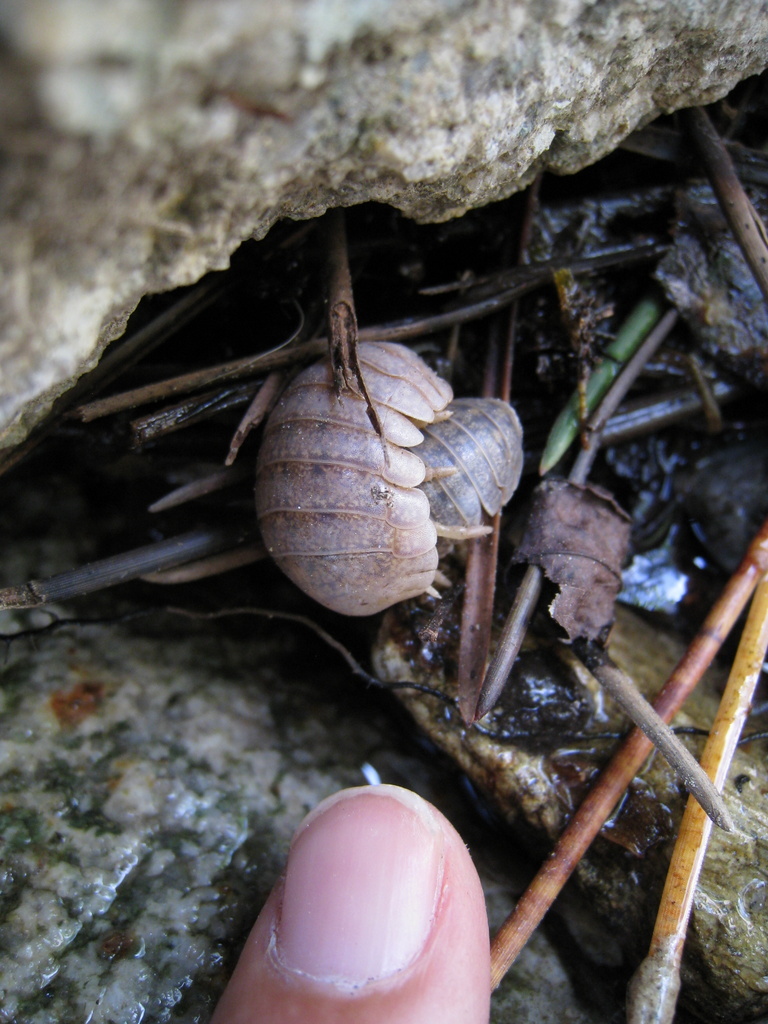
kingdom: Animalia
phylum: Arthropoda
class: Malacostraca
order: Isopoda
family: Tylidae
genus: Helleria
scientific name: Helleria brevicornis
